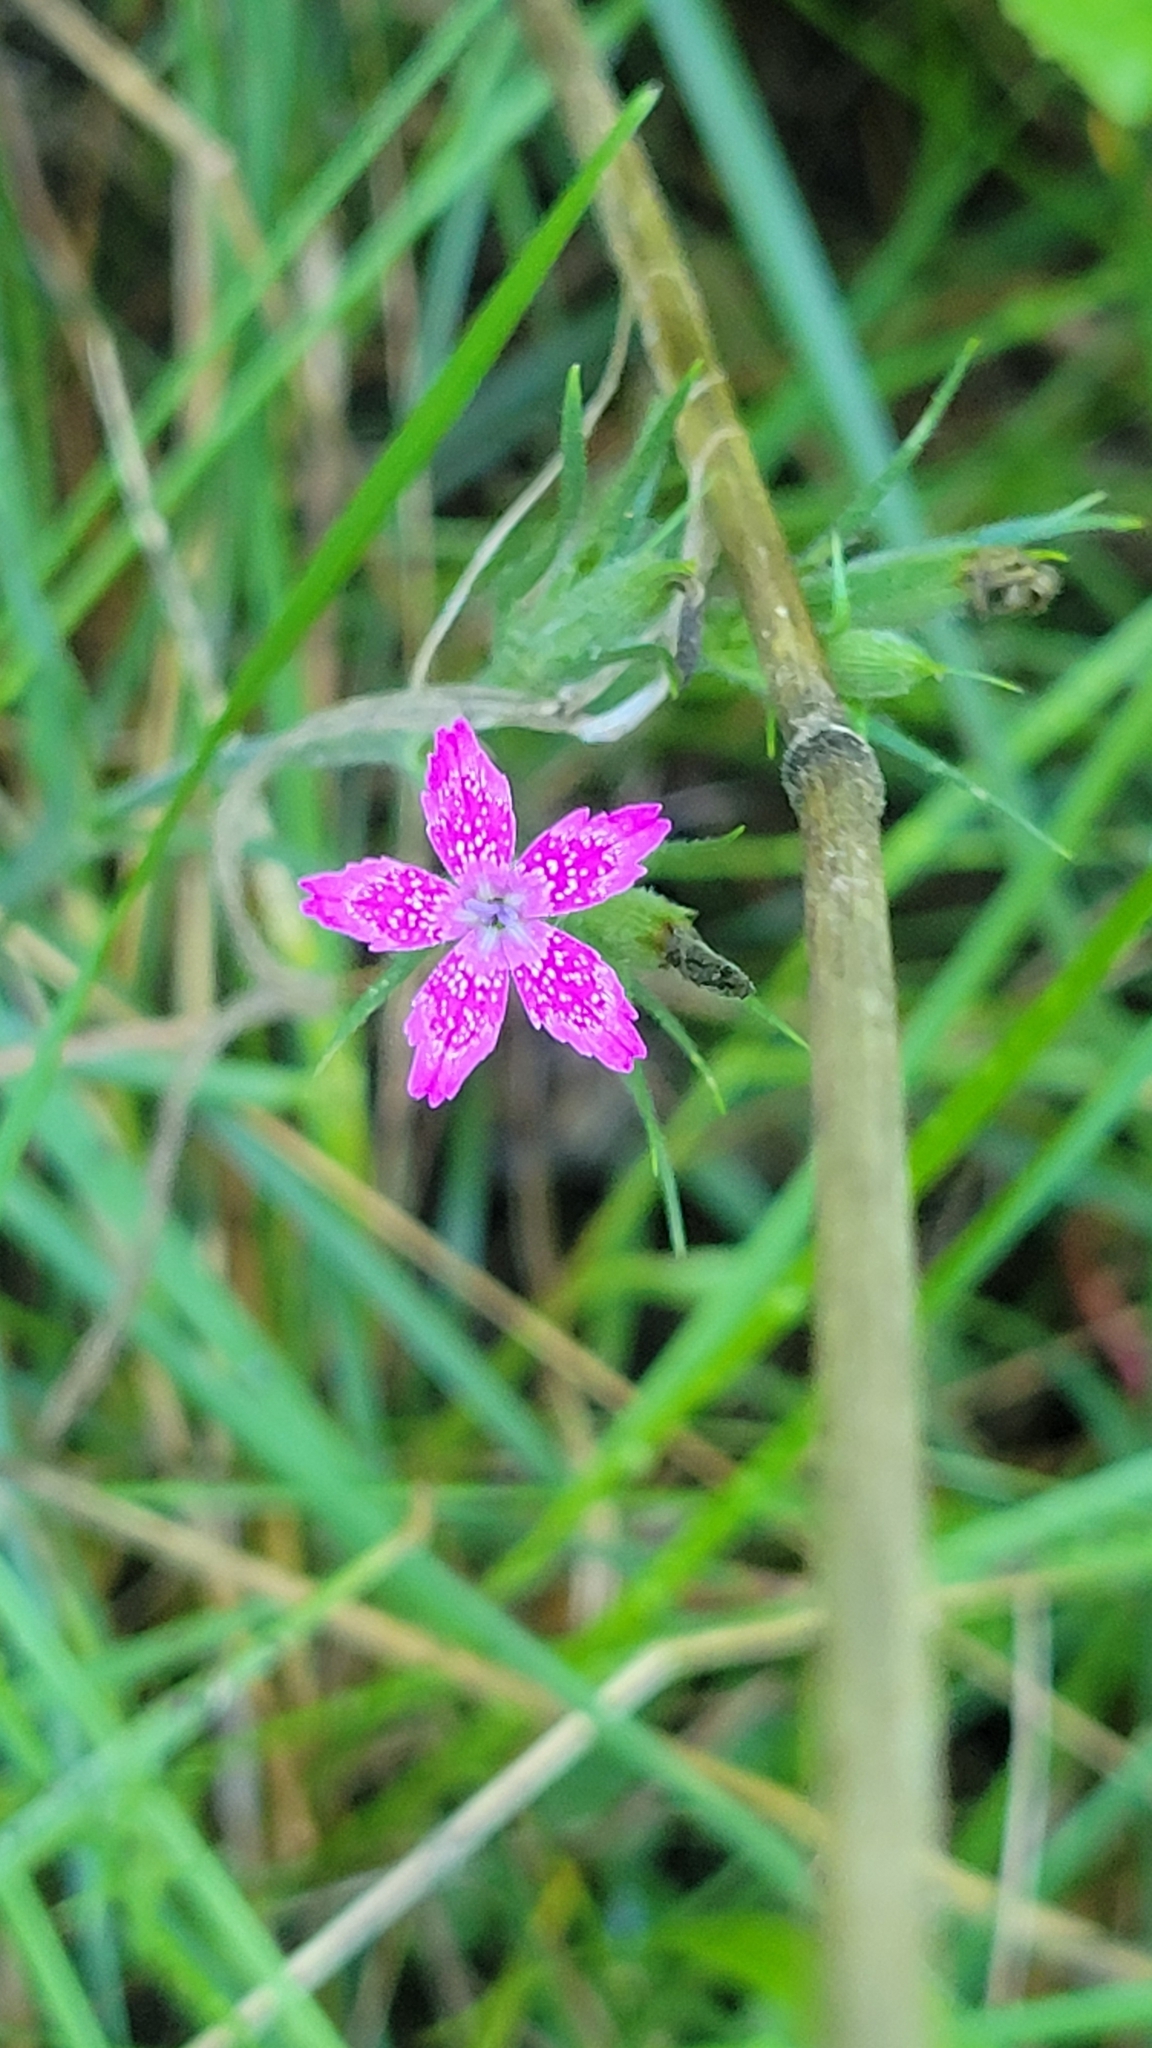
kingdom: Plantae
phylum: Tracheophyta
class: Magnoliopsida
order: Caryophyllales
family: Caryophyllaceae
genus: Dianthus
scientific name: Dianthus armeria
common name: Deptford pink
